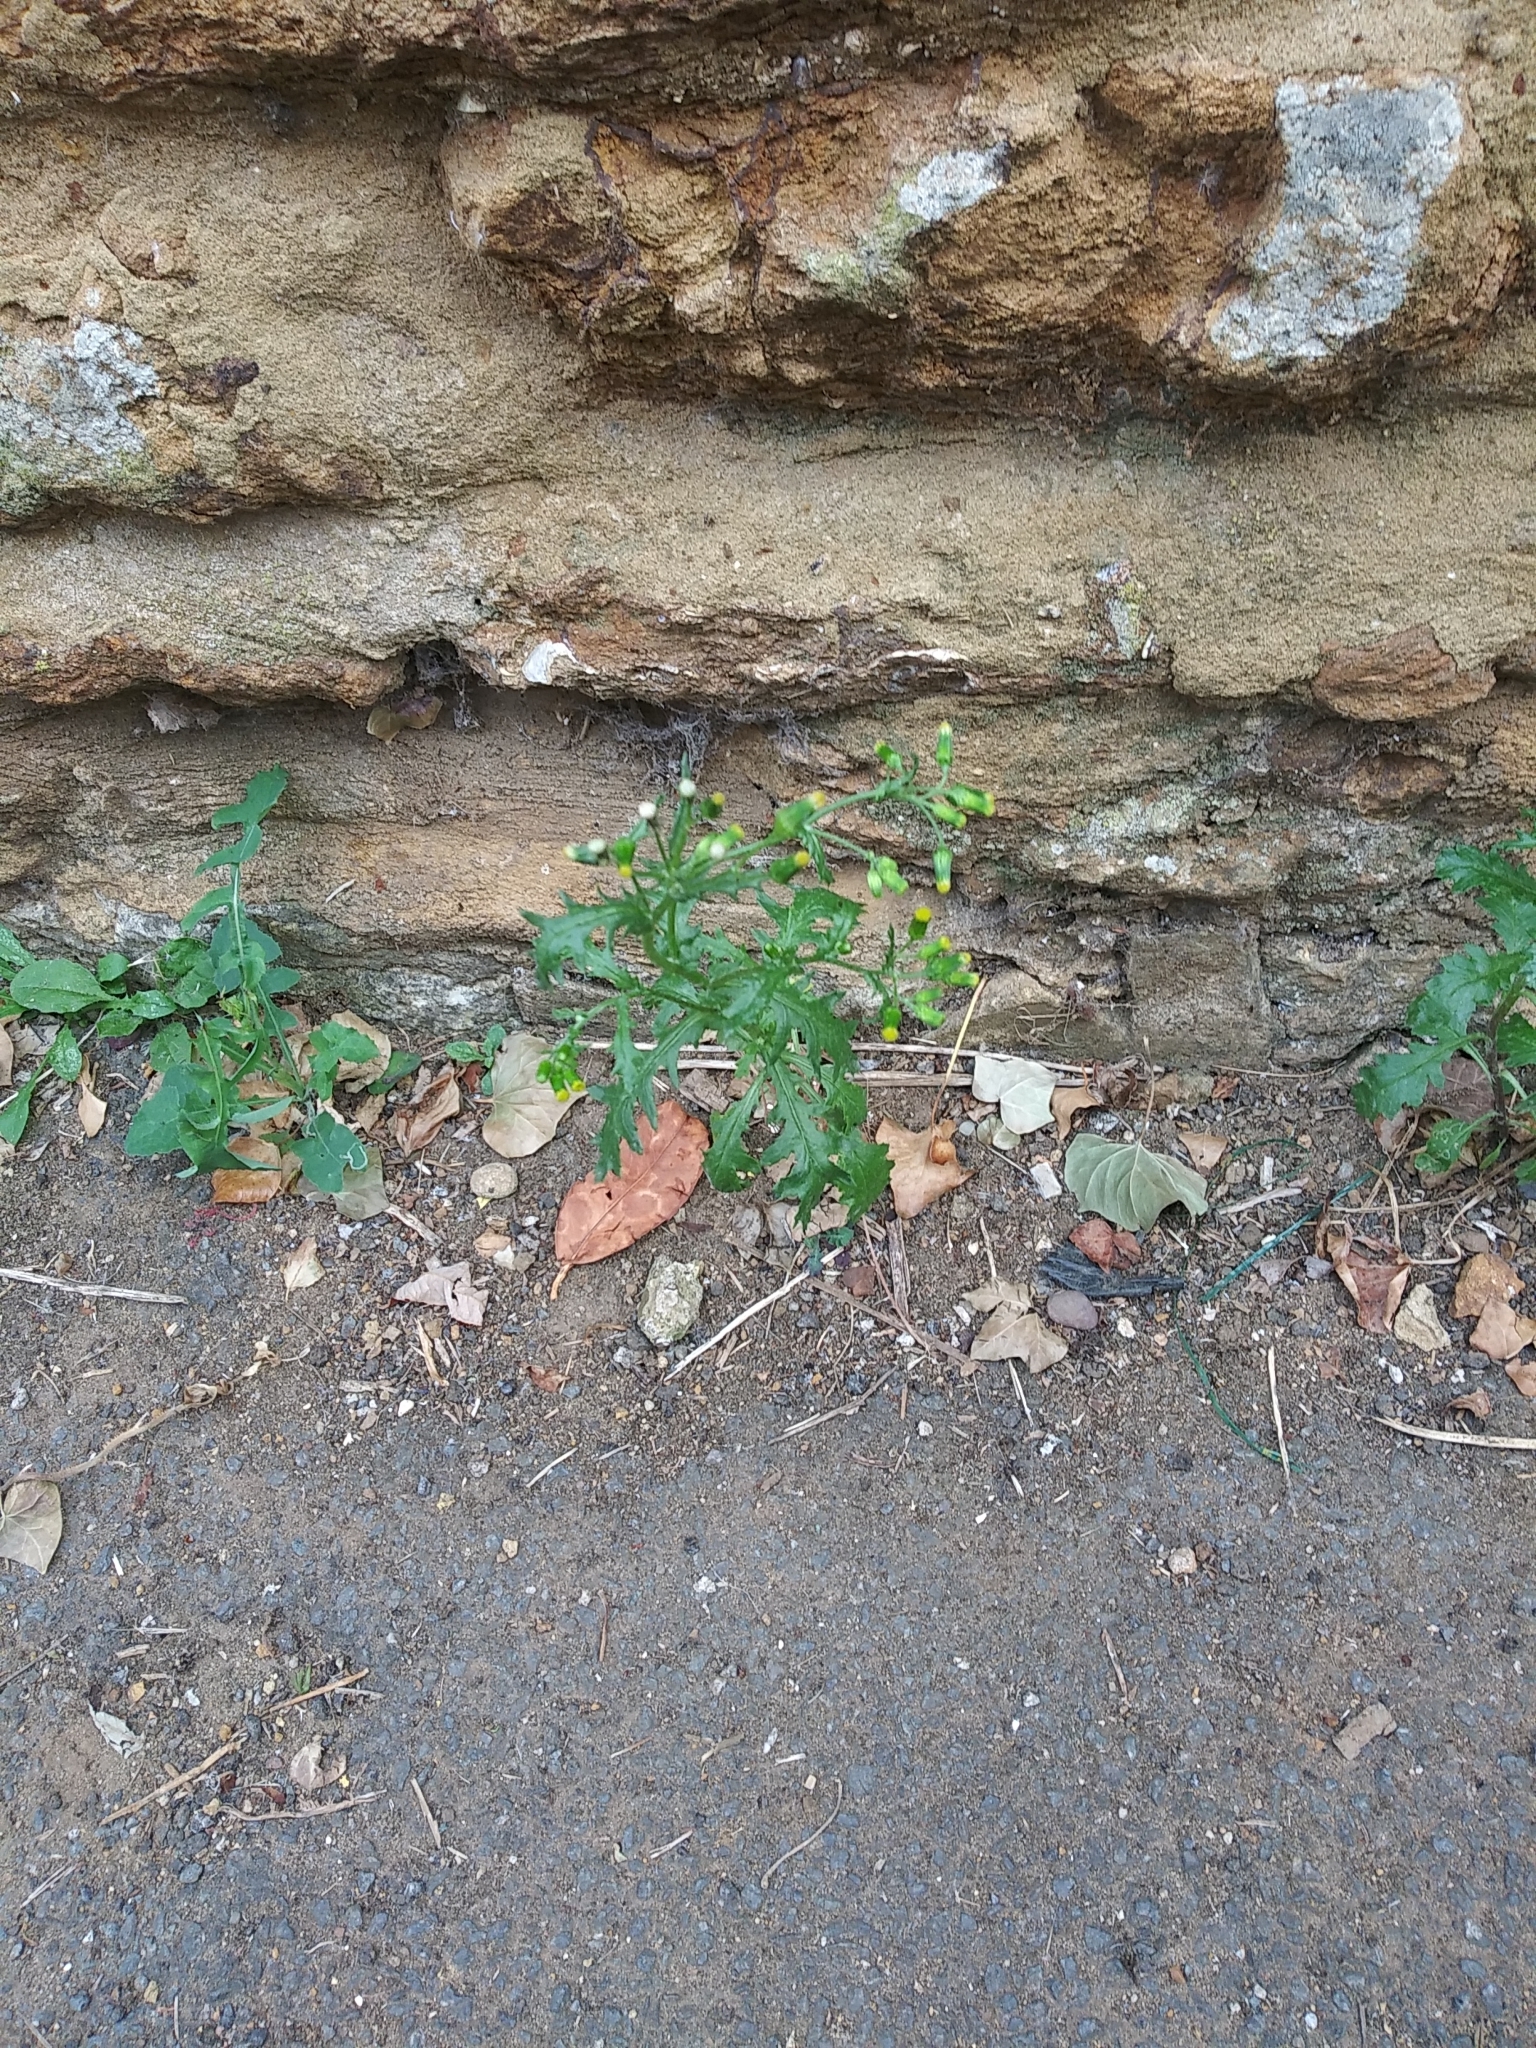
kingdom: Plantae
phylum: Tracheophyta
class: Magnoliopsida
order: Asterales
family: Asteraceae
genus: Senecio
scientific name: Senecio vulgaris
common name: Old-man-in-the-spring
